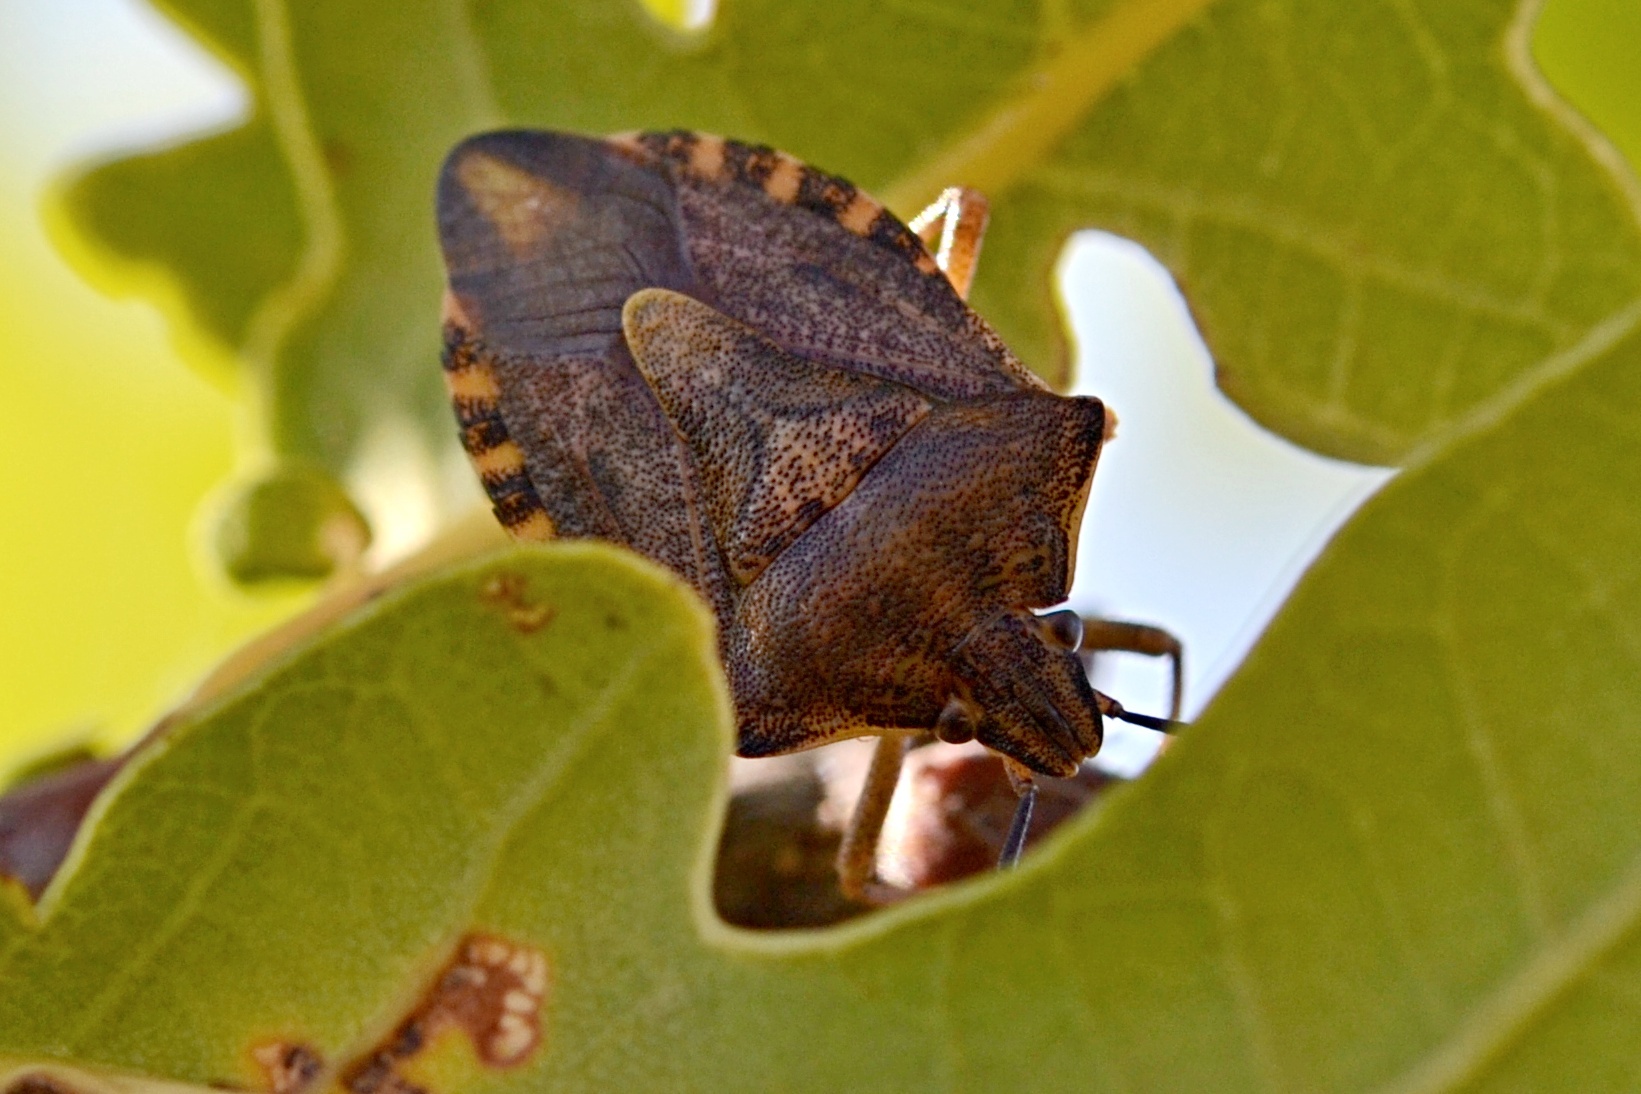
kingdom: Animalia
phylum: Arthropoda
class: Insecta
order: Hemiptera
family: Pentatomidae
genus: Carpocoris
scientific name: Carpocoris purpureipennis
